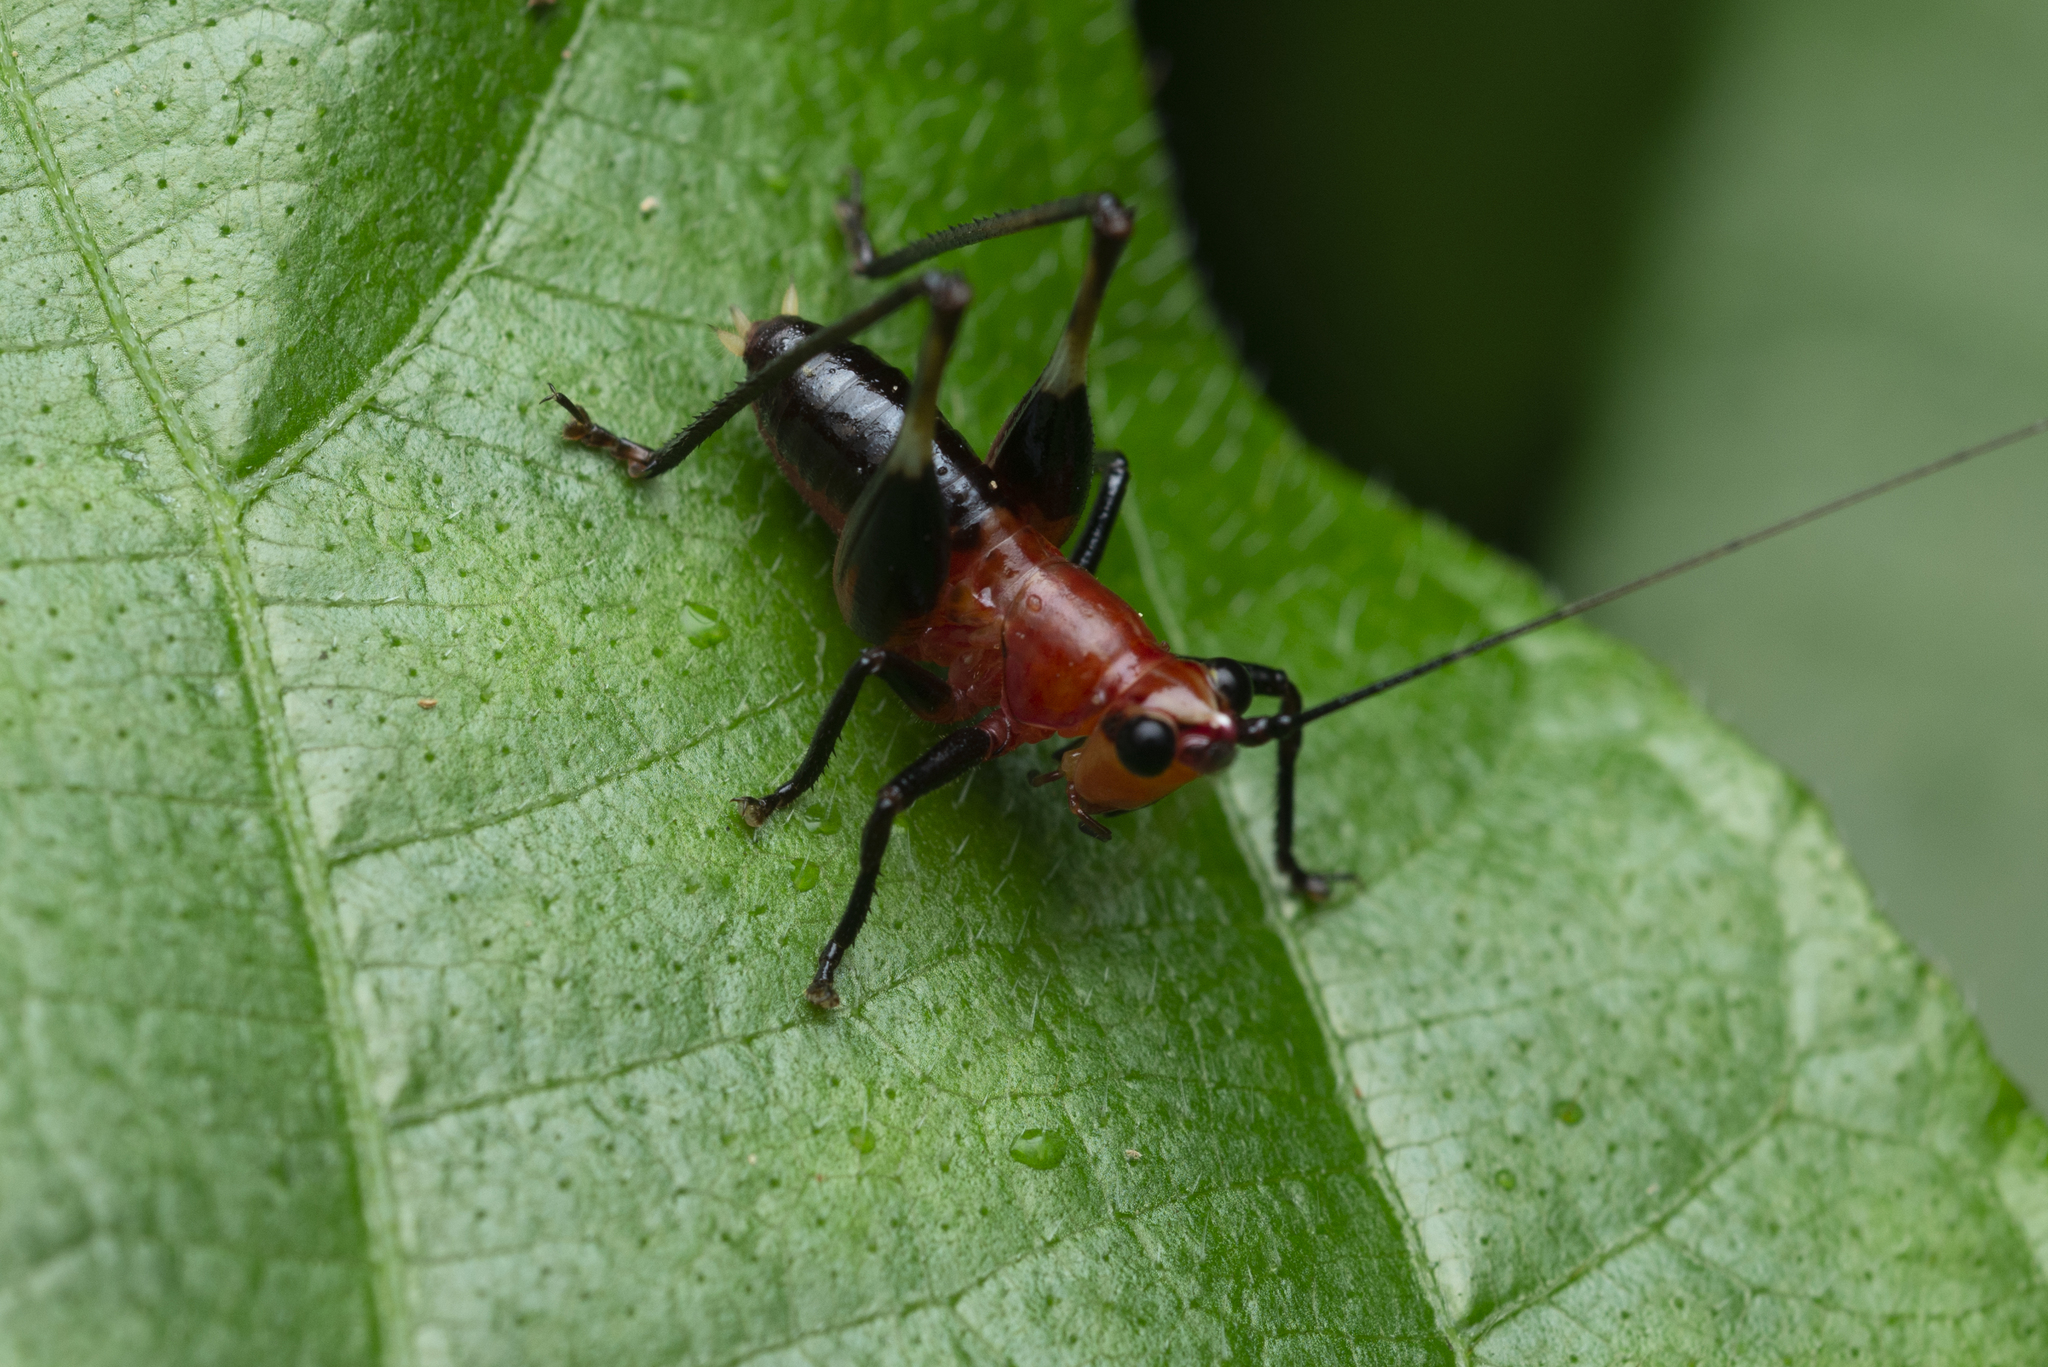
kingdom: Animalia
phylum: Arthropoda
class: Insecta
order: Orthoptera
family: Tettigoniidae
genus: Conocephalus
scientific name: Conocephalus melaenus
